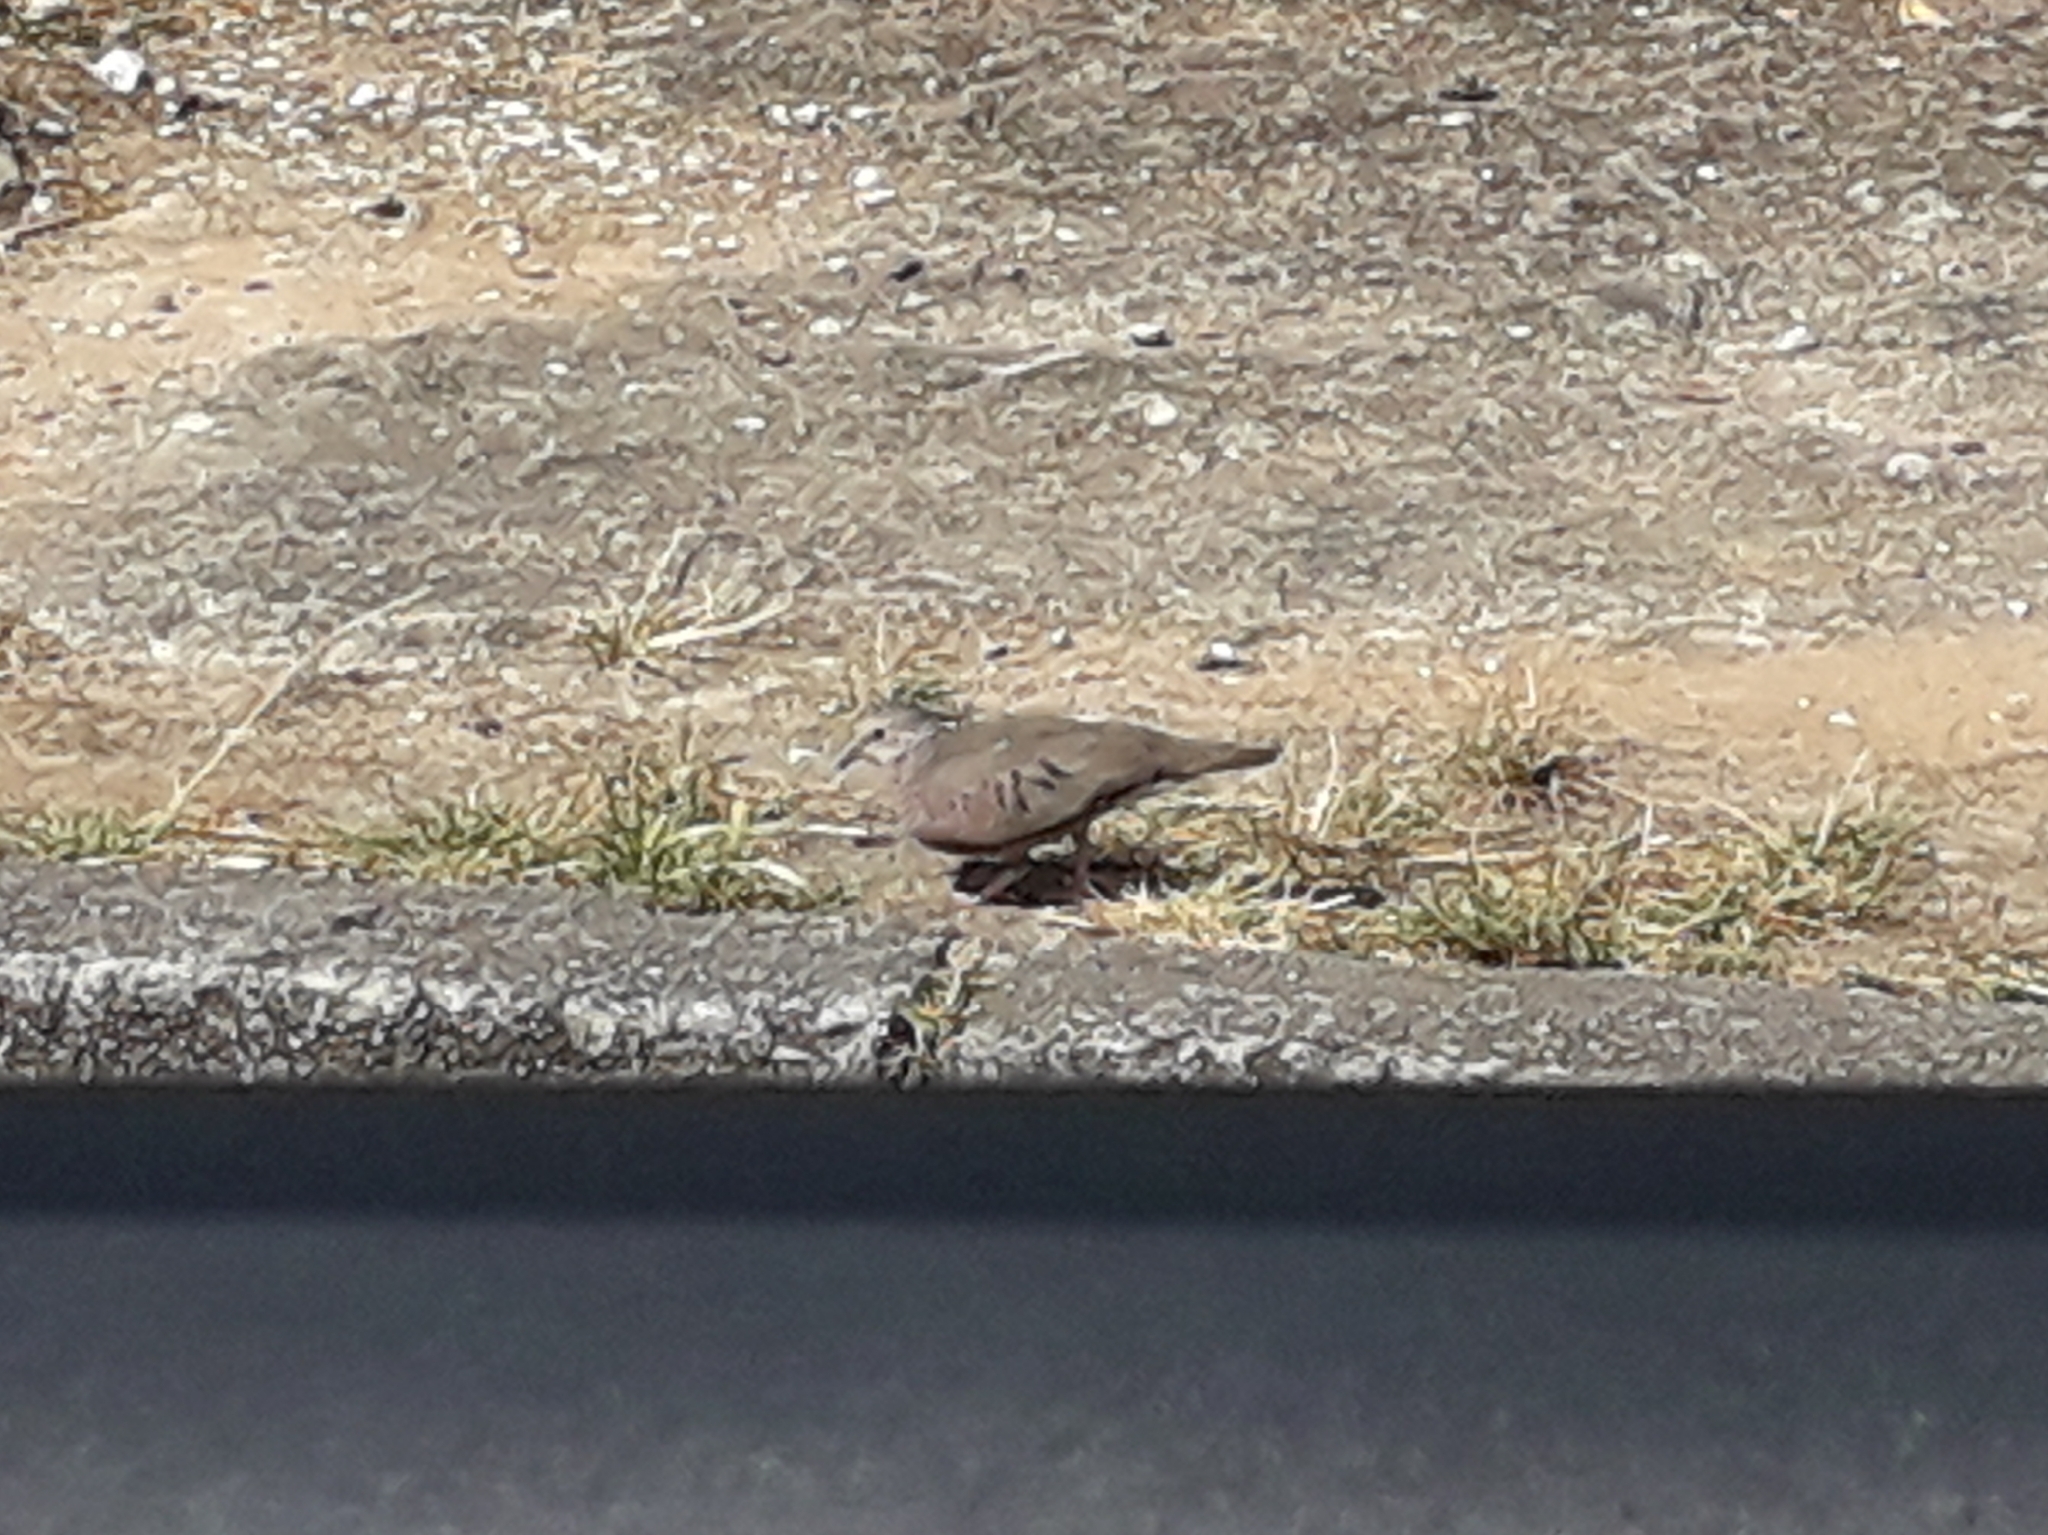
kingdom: Animalia
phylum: Chordata
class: Aves
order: Columbiformes
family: Columbidae
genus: Columbina
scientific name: Columbina talpacoti
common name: Ruddy ground dove
